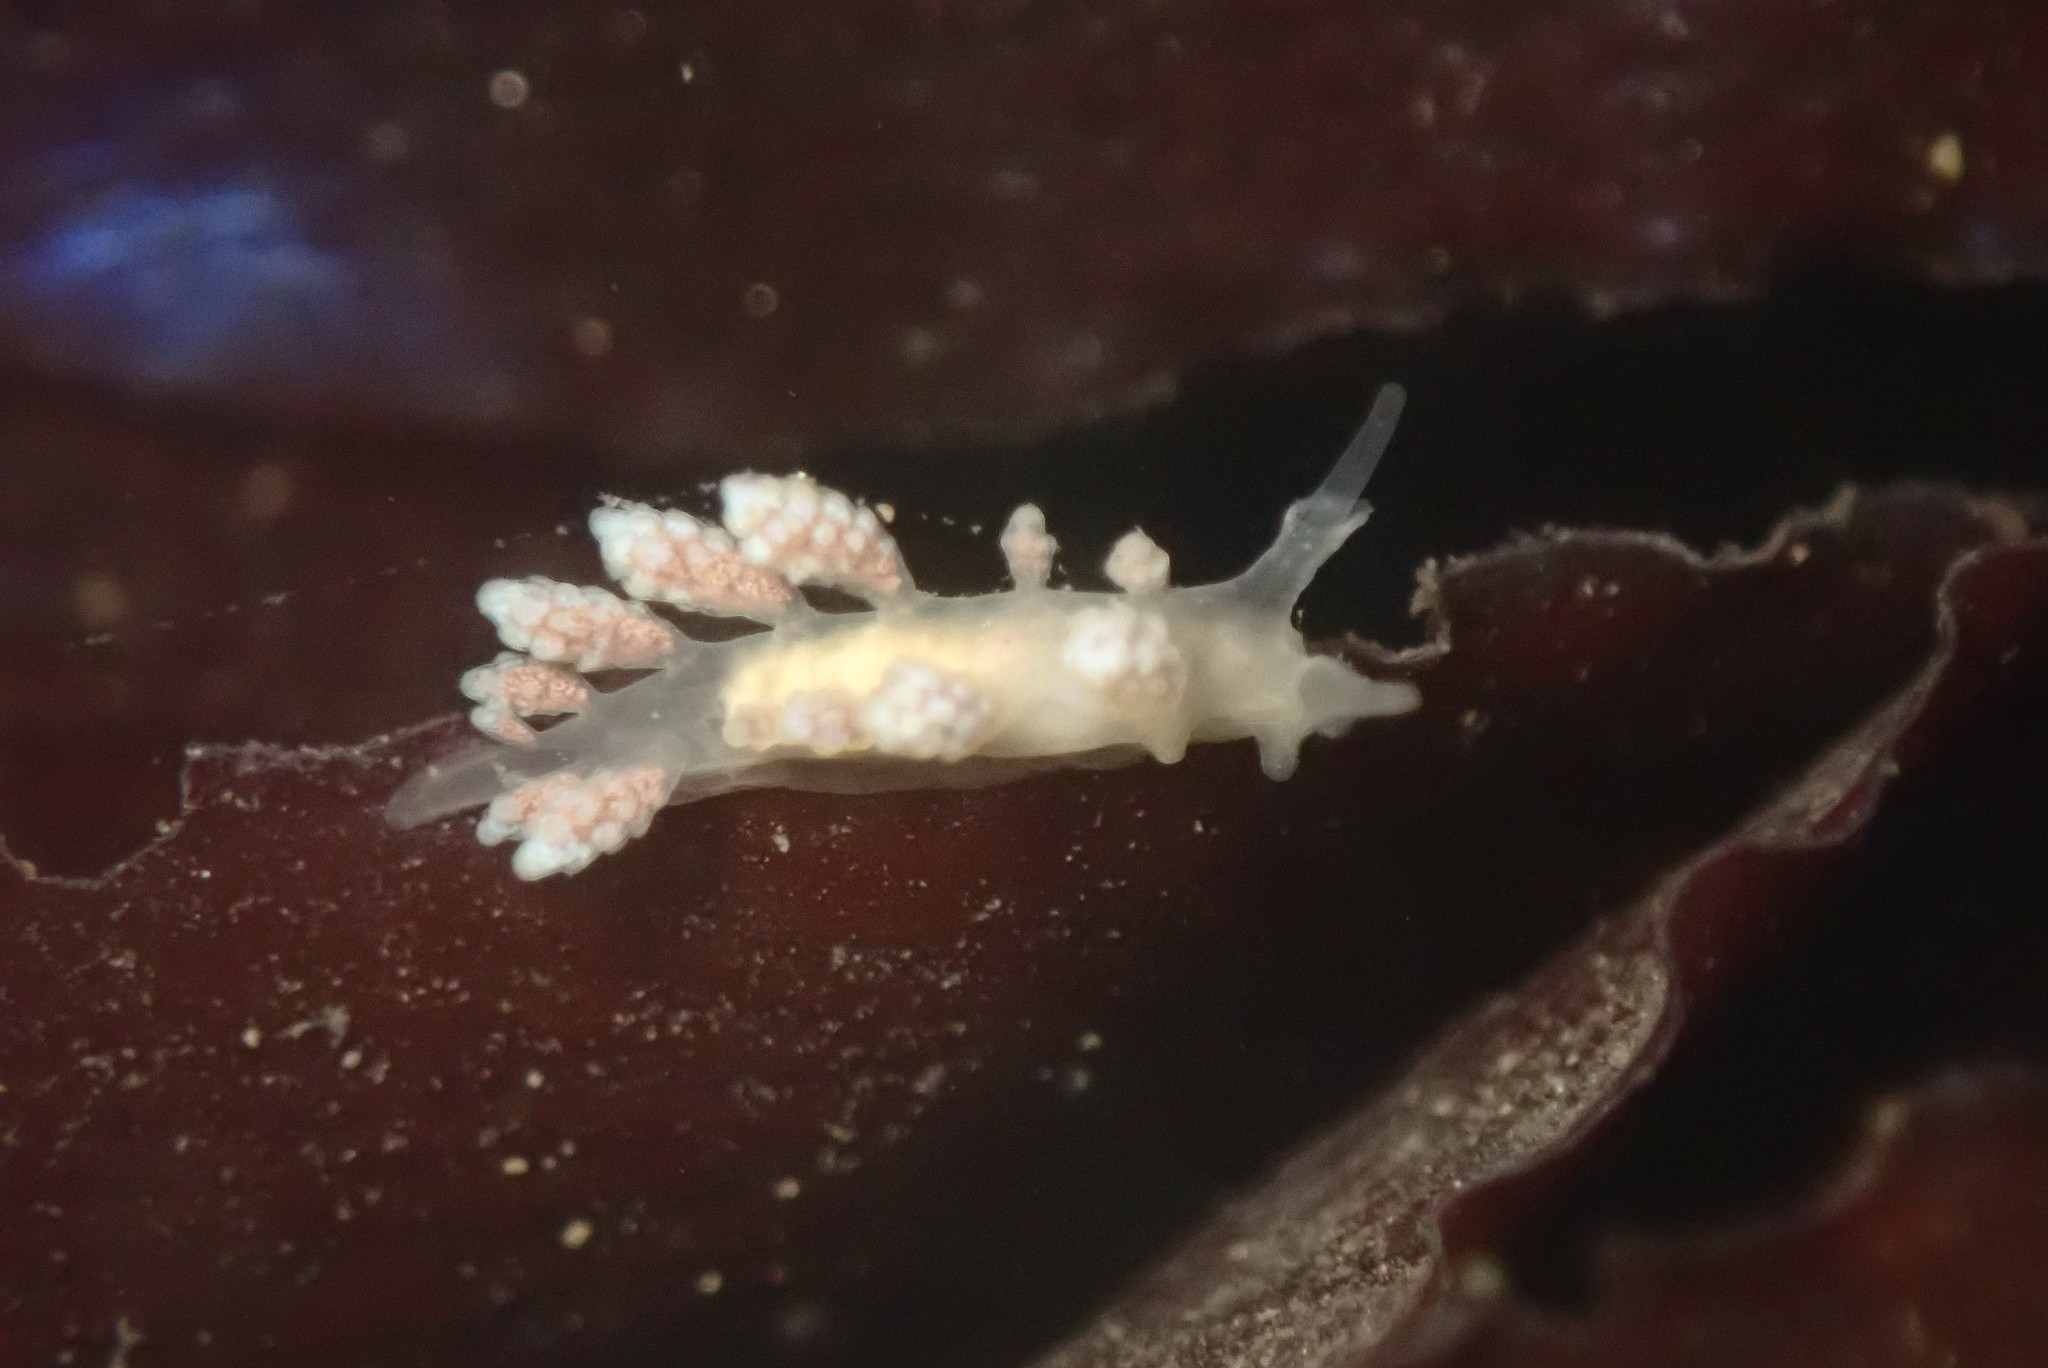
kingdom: Animalia
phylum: Mollusca
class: Gastropoda
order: Nudibranchia
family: Dotidae
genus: Doto
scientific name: Doto amyra
